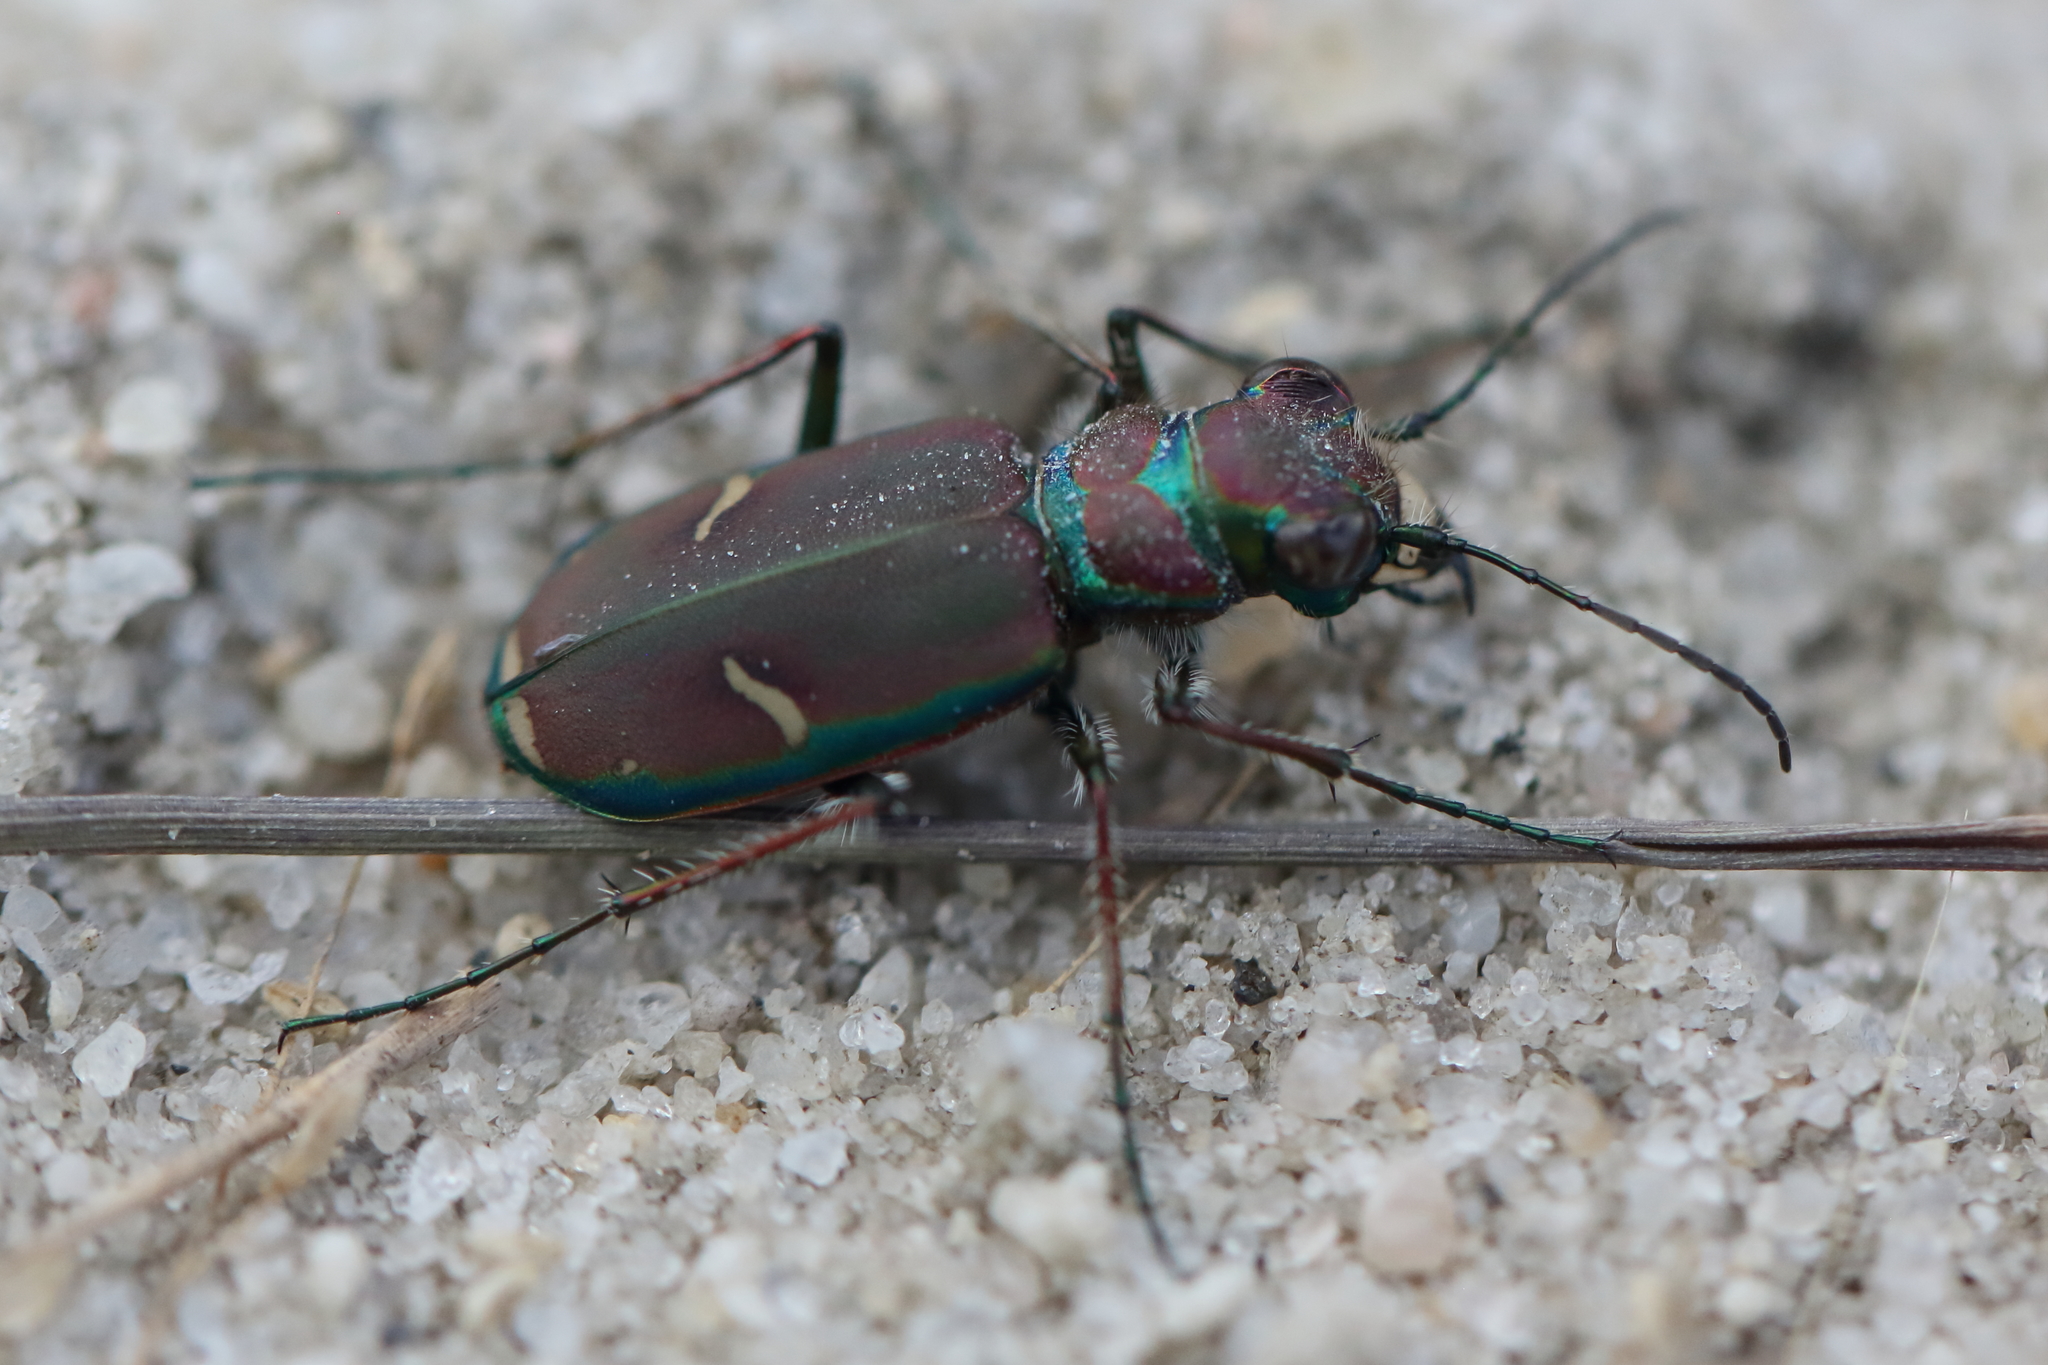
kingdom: Animalia
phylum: Arthropoda
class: Insecta
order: Coleoptera
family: Carabidae
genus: Cicindela
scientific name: Cicindela purpurea
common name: Cow path tiger beetle
